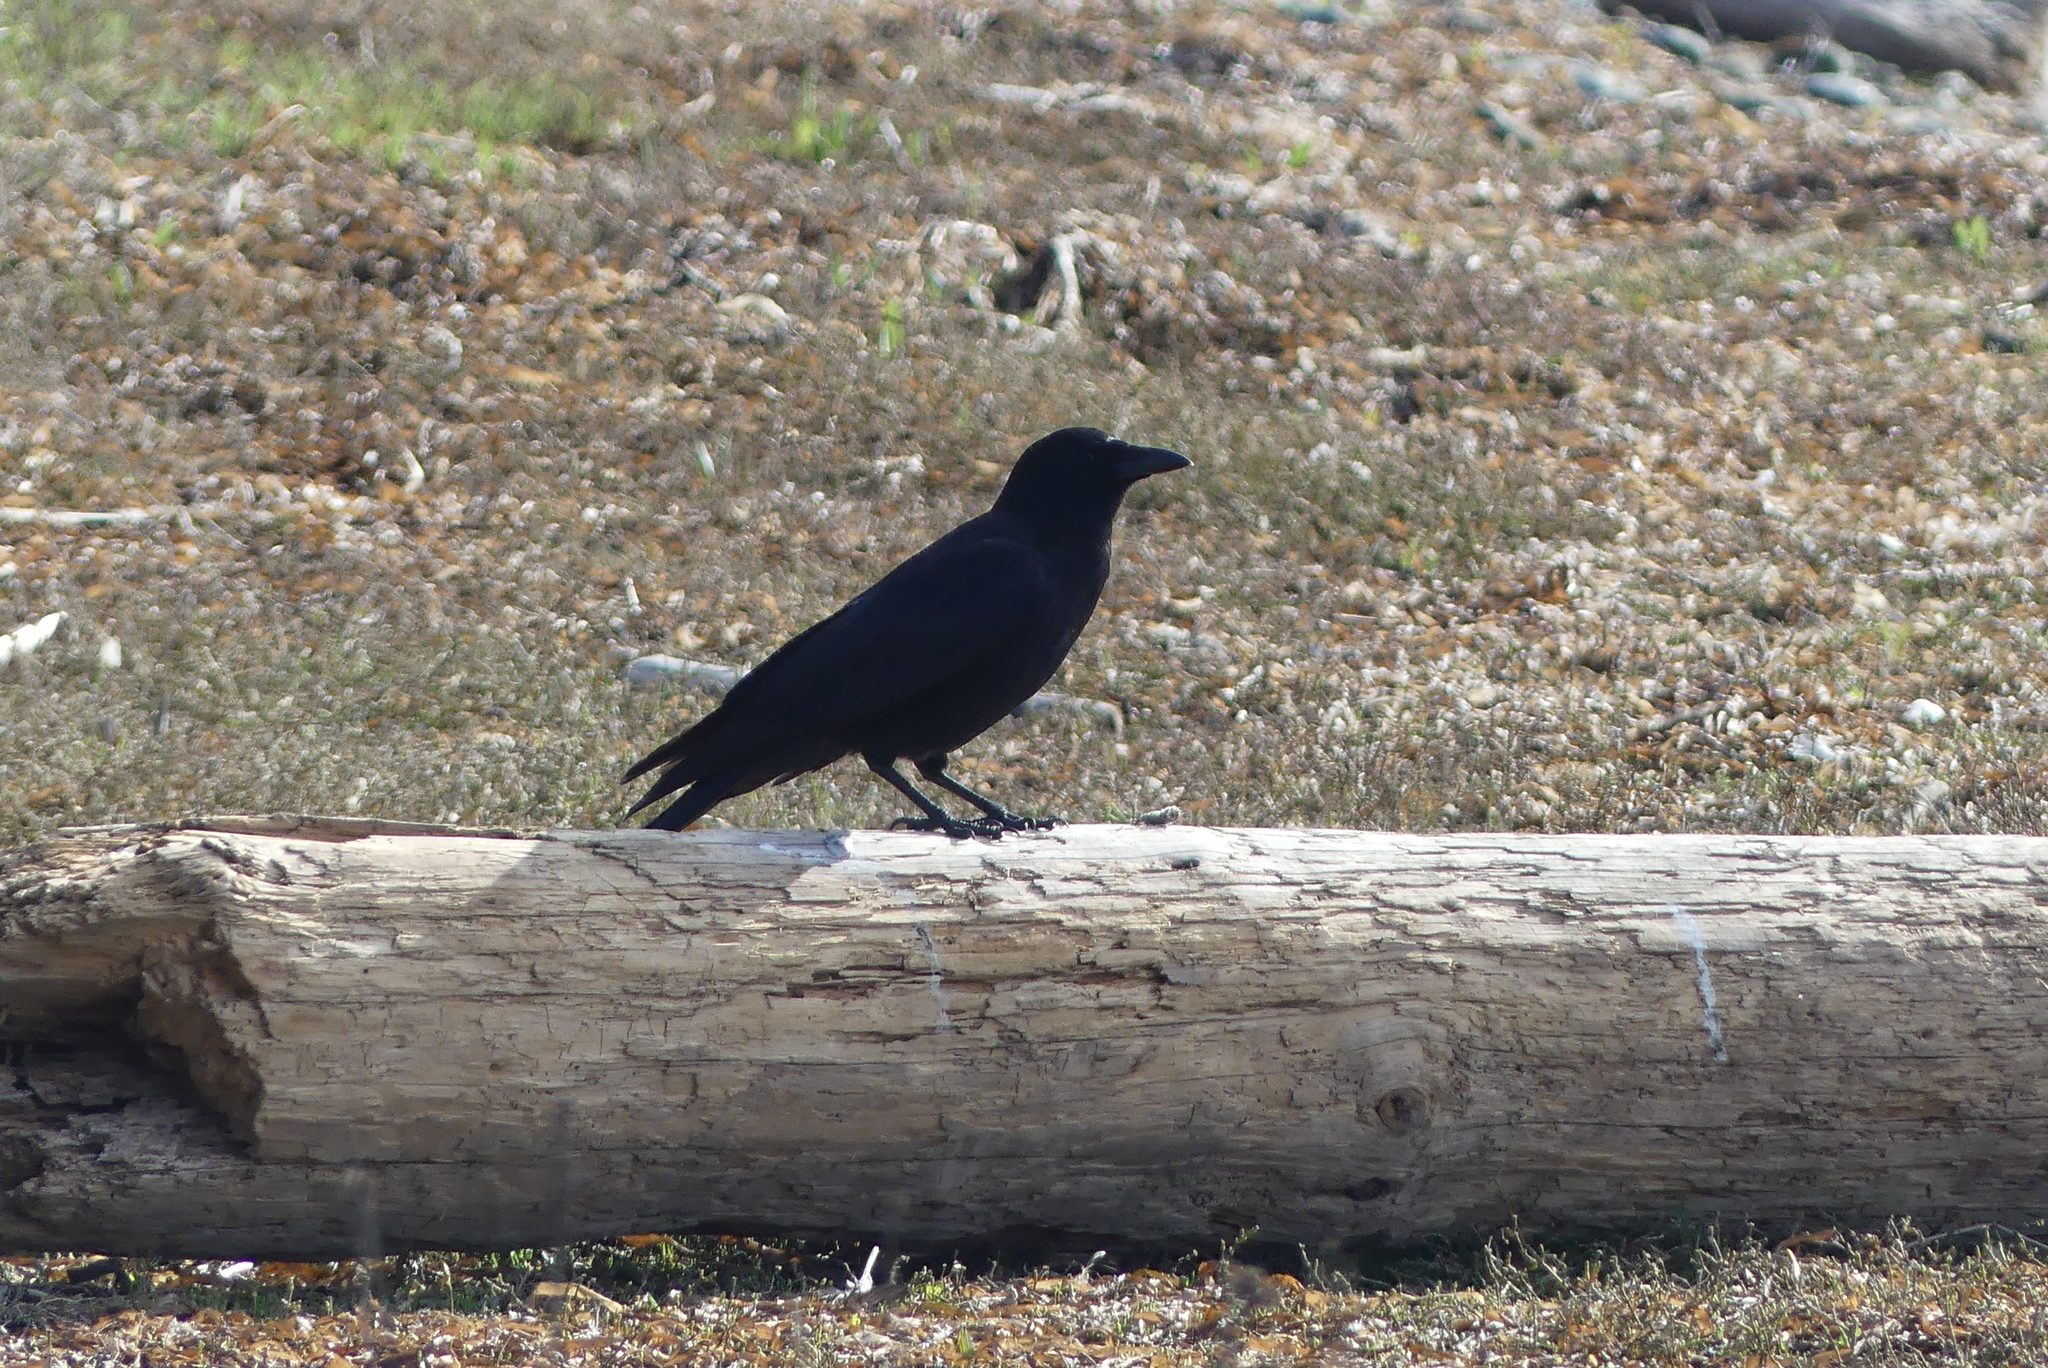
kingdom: Animalia
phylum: Chordata
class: Aves
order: Passeriformes
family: Corvidae
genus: Corvus
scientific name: Corvus brachyrhynchos
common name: American crow
